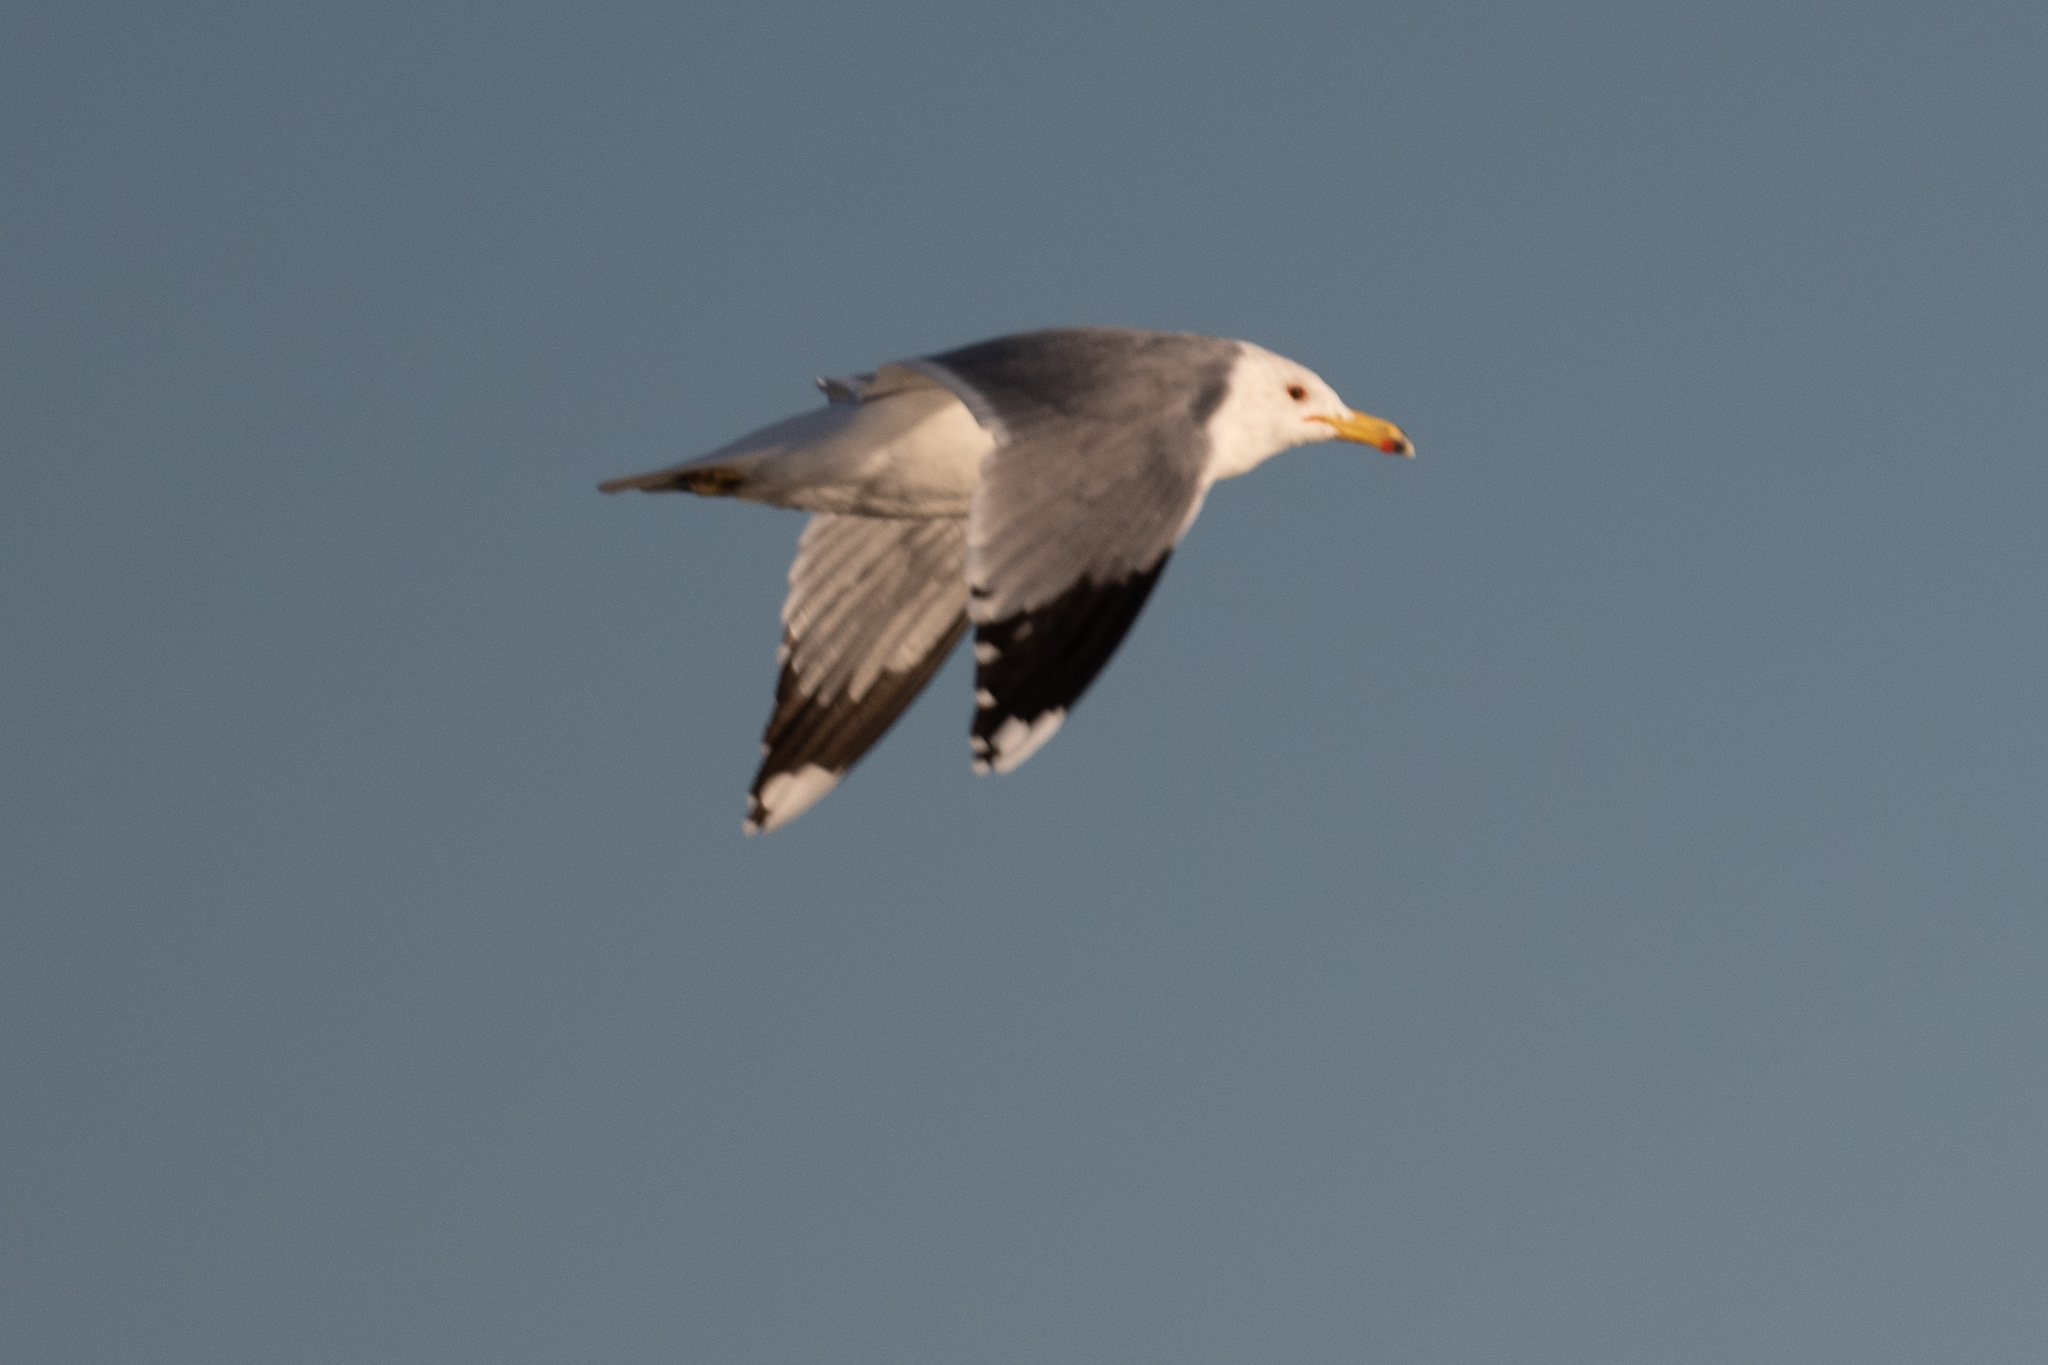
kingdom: Animalia
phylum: Chordata
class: Aves
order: Charadriiformes
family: Laridae
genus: Larus
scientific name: Larus californicus
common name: California gull
